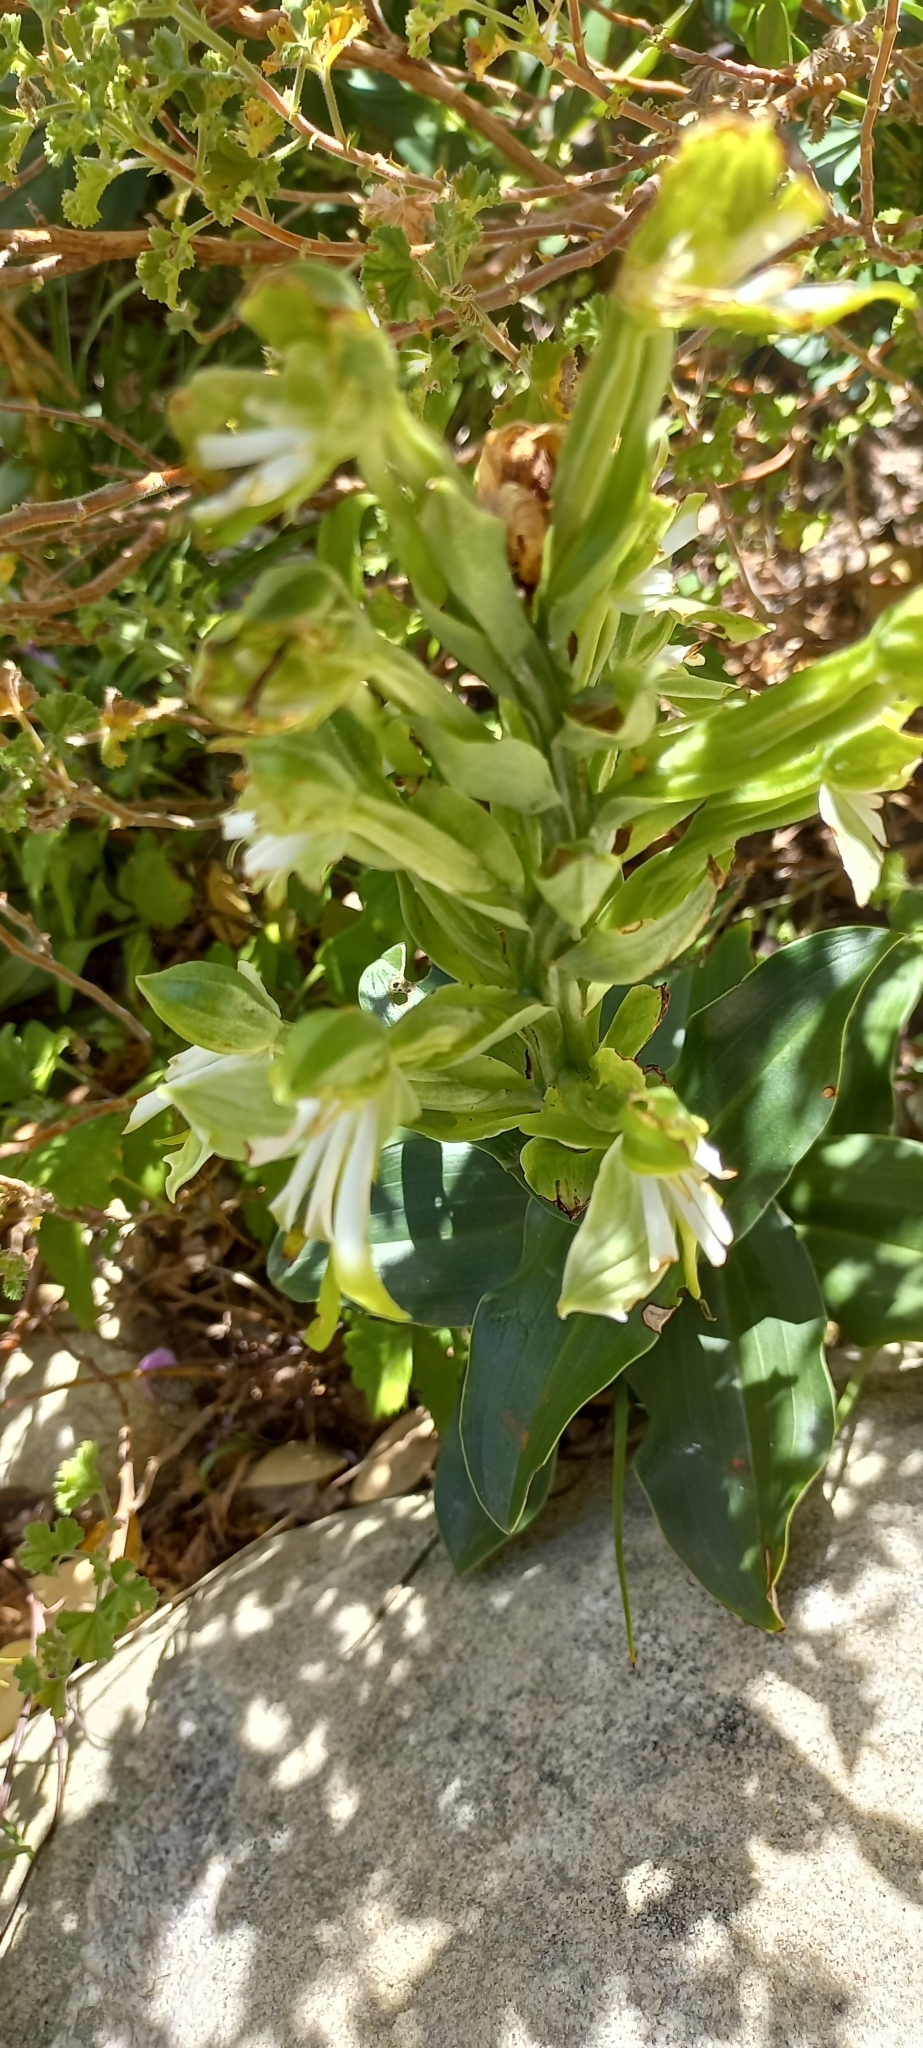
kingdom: Plantae
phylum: Tracheophyta
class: Liliopsida
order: Asparagales
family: Orchidaceae
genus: Bonatea
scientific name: Bonatea speciosa
